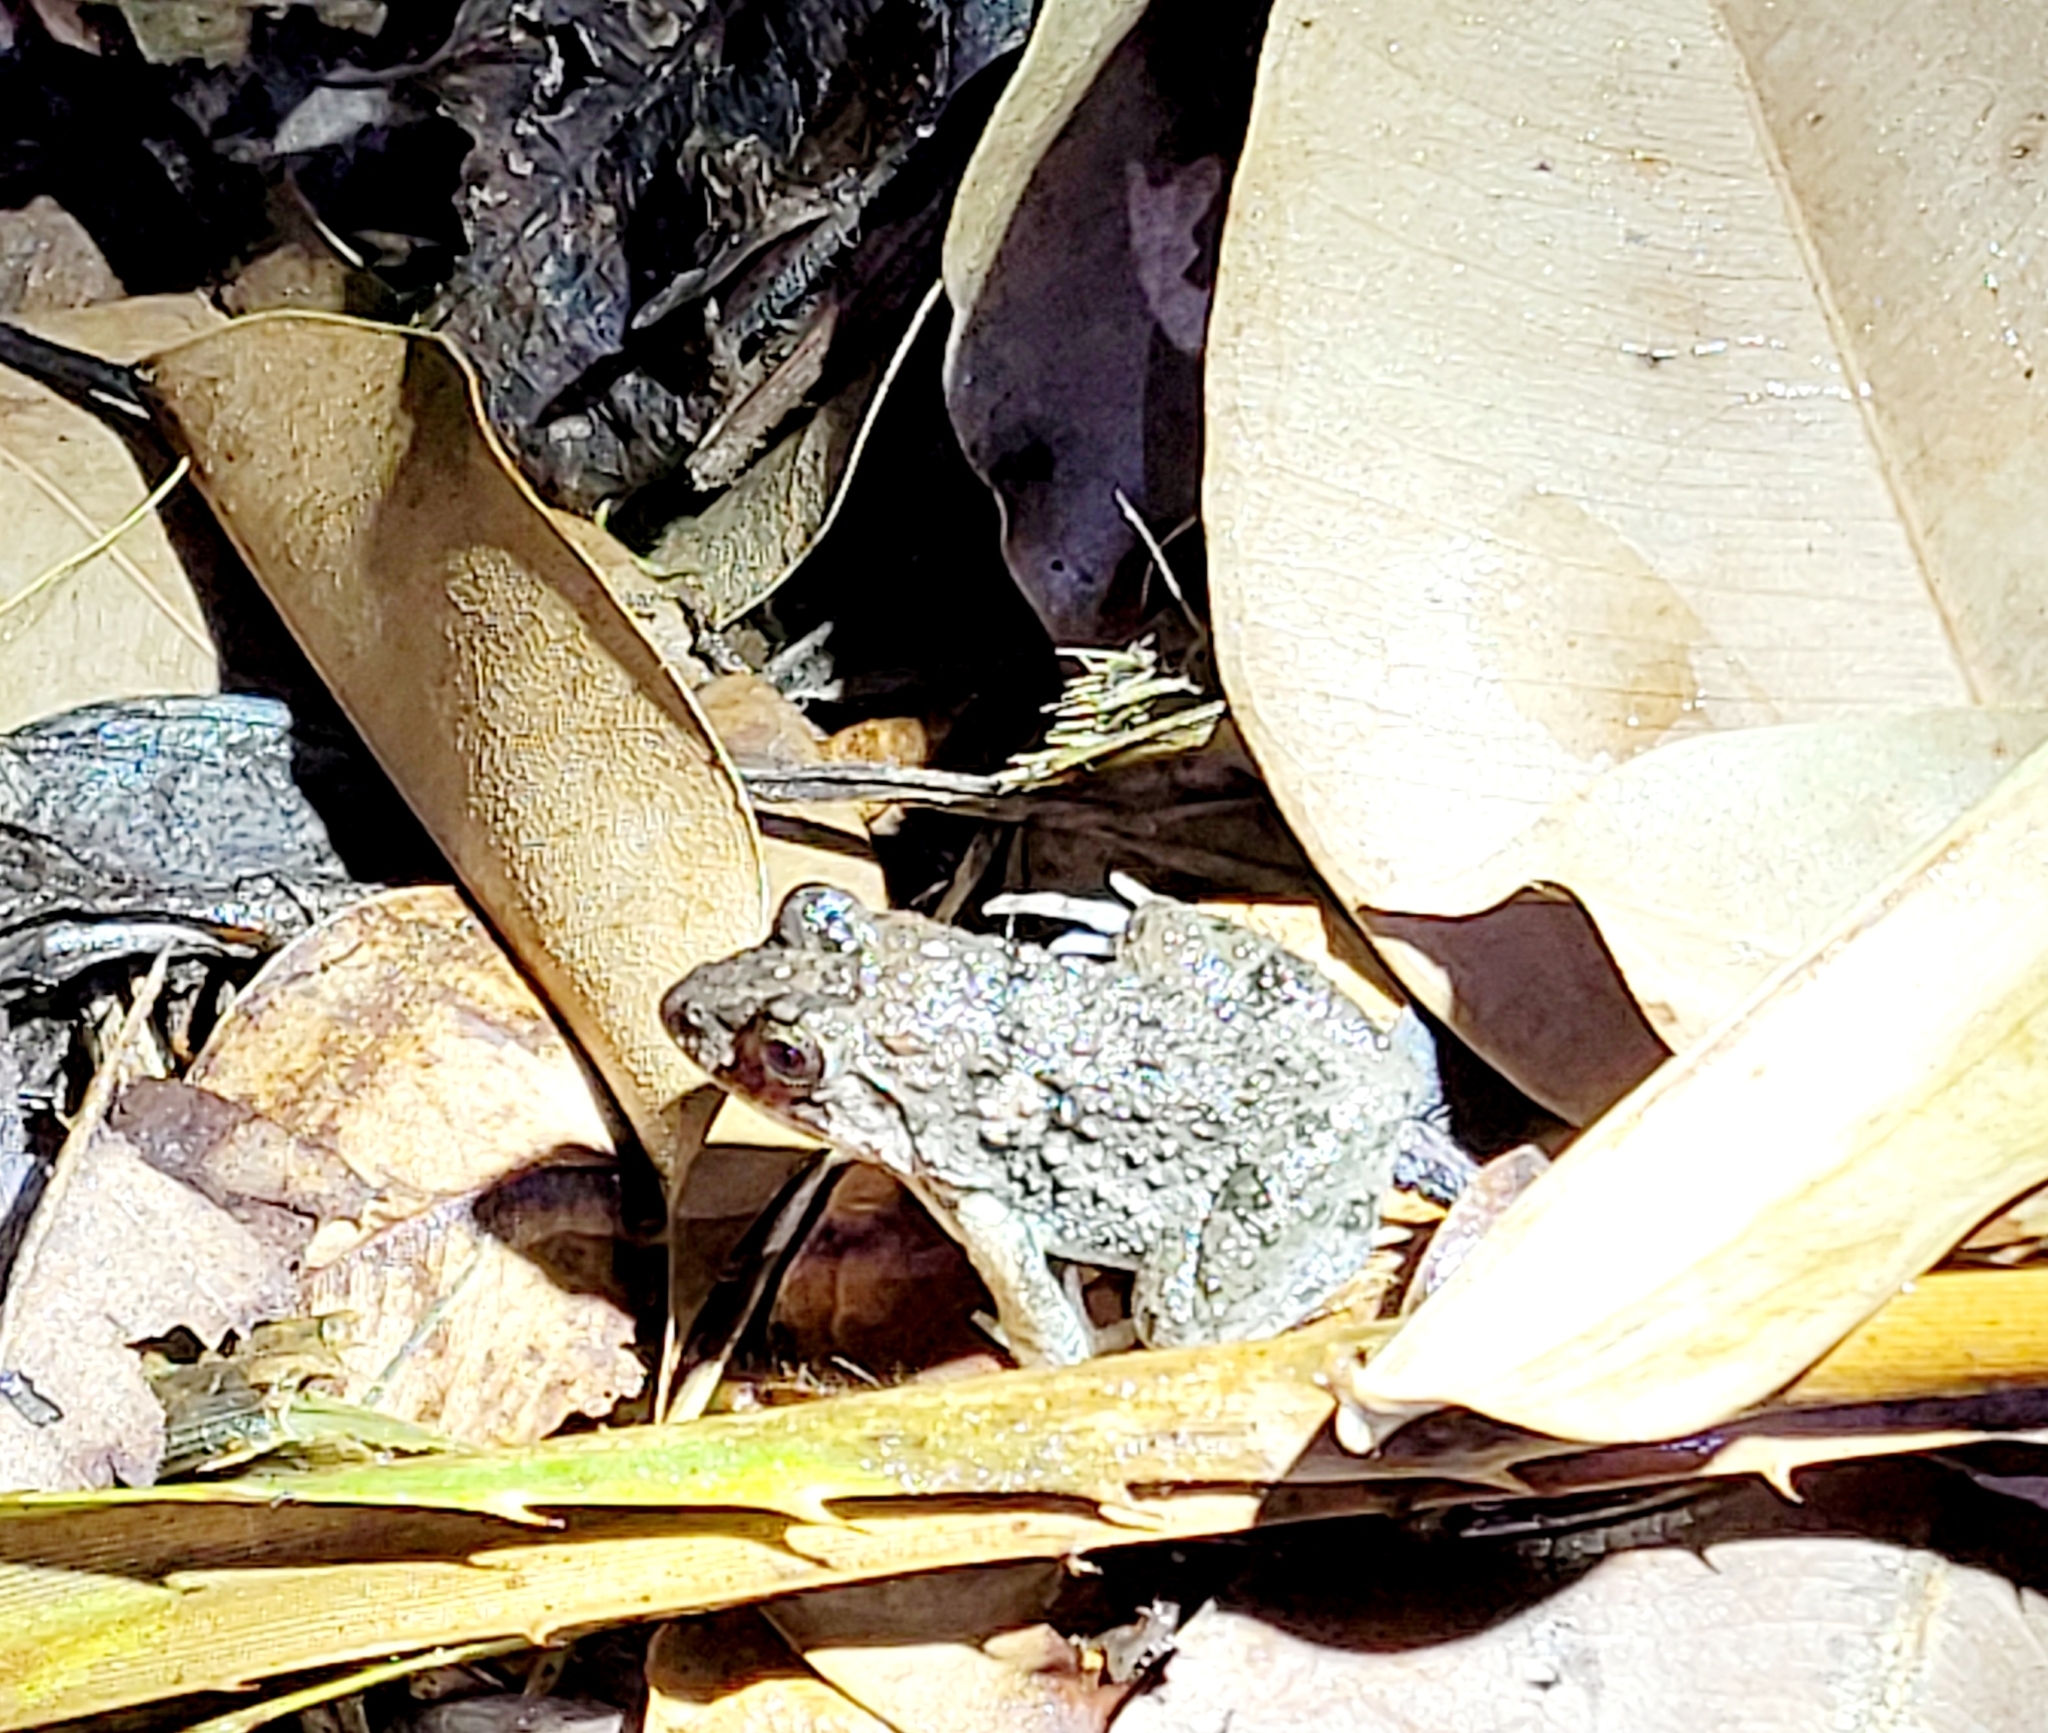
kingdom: Animalia
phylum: Chordata
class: Amphibia
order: Anura
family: Dicroglossidae
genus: Fejervarya
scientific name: Fejervarya limnocharis
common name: Asian grass frog/common pond frog/field frog/grass frog/indian rice frog
